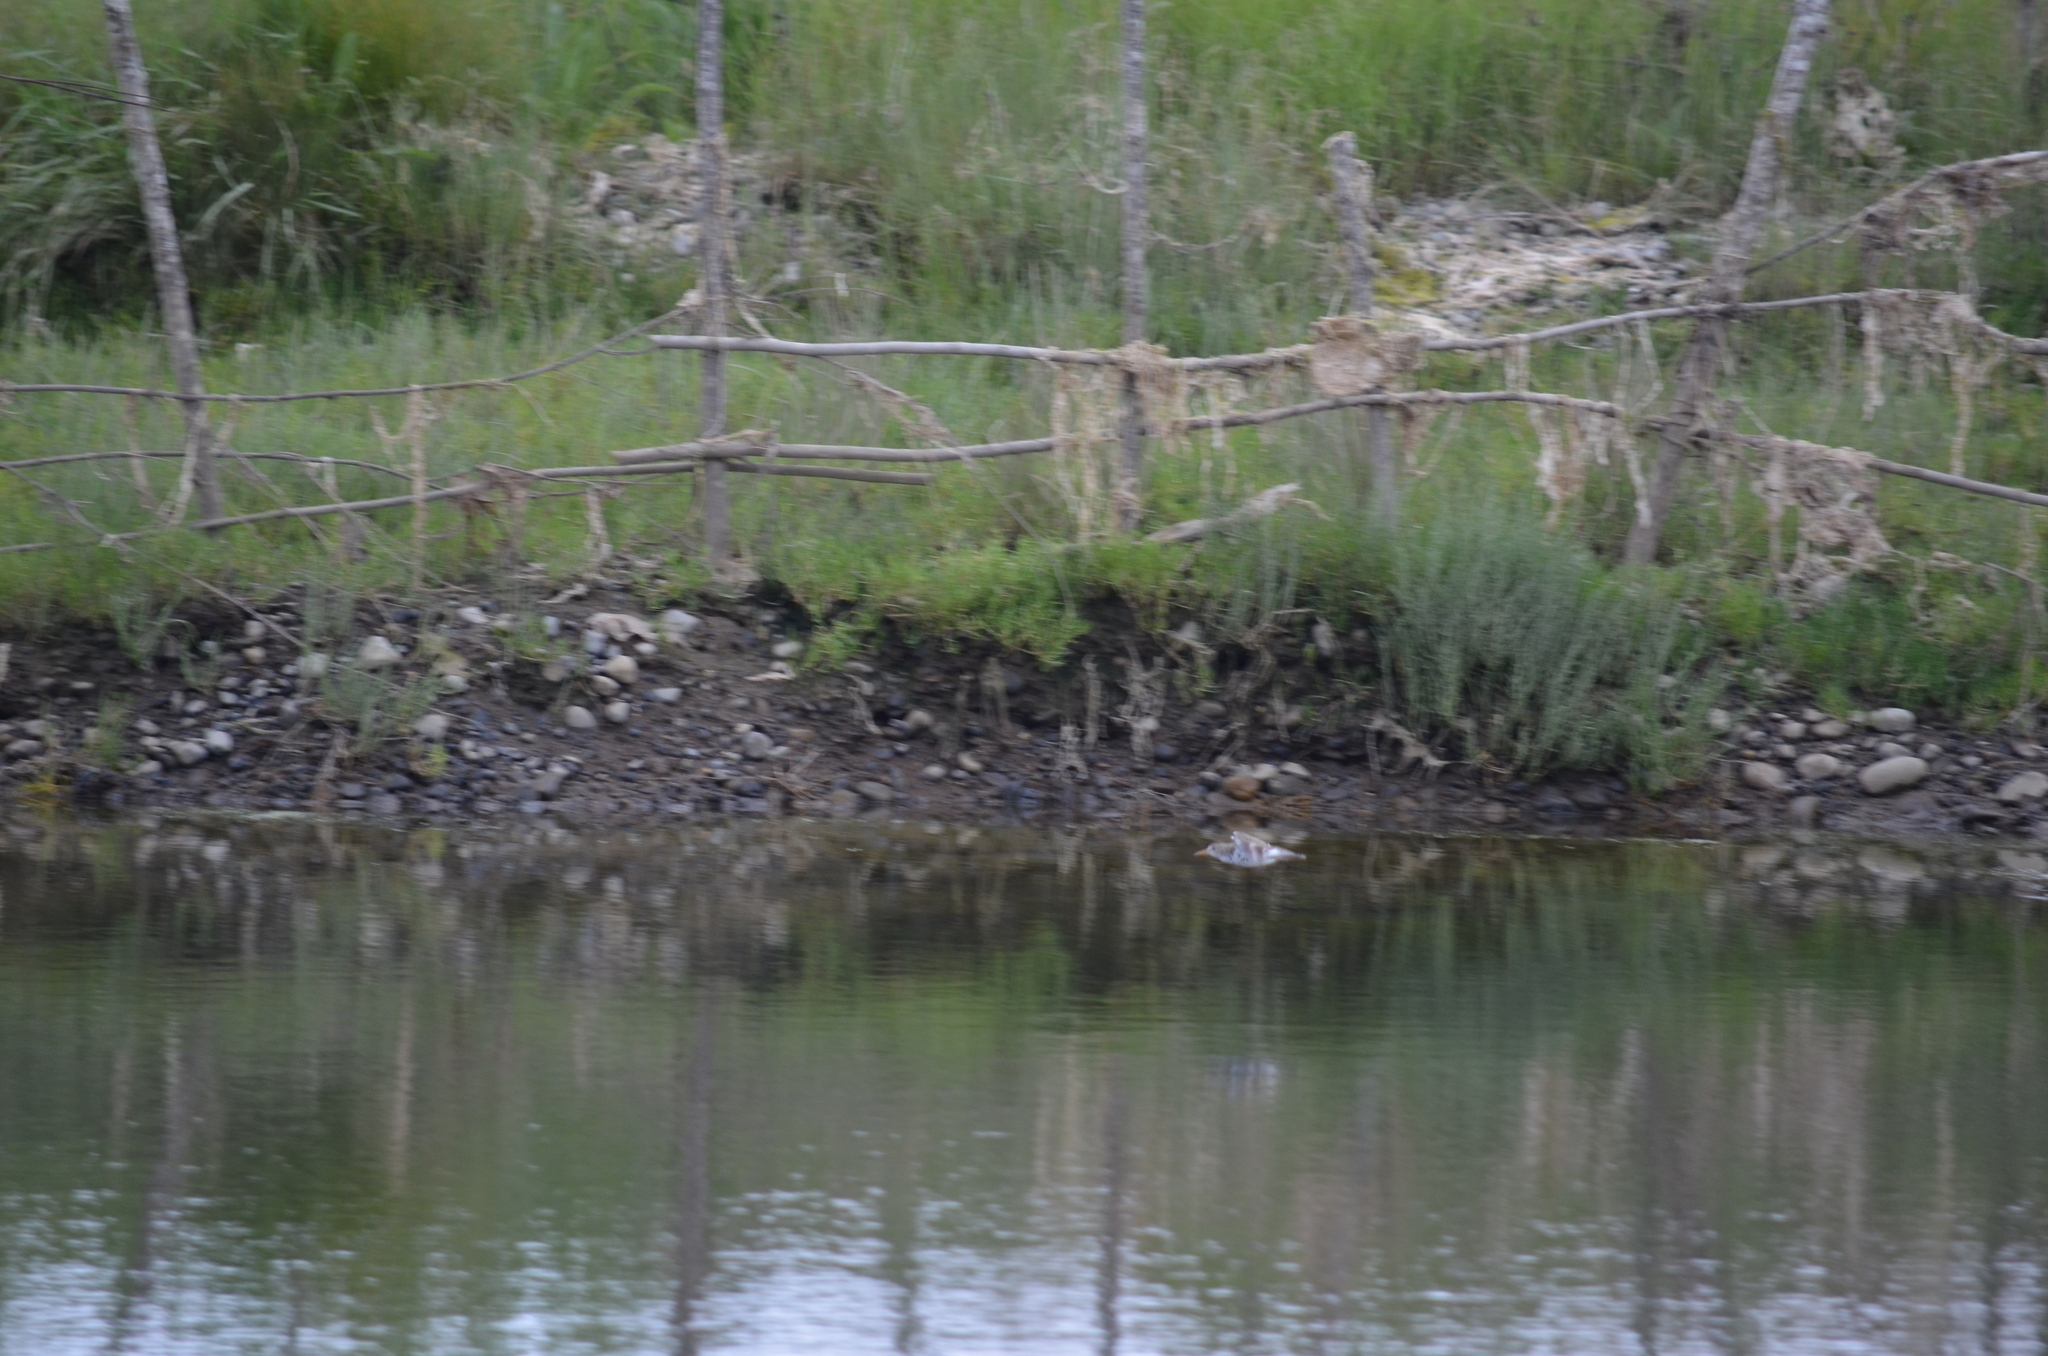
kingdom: Animalia
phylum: Chordata
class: Aves
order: Charadriiformes
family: Scolopacidae
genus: Actitis
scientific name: Actitis macularius
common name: Spotted sandpiper
